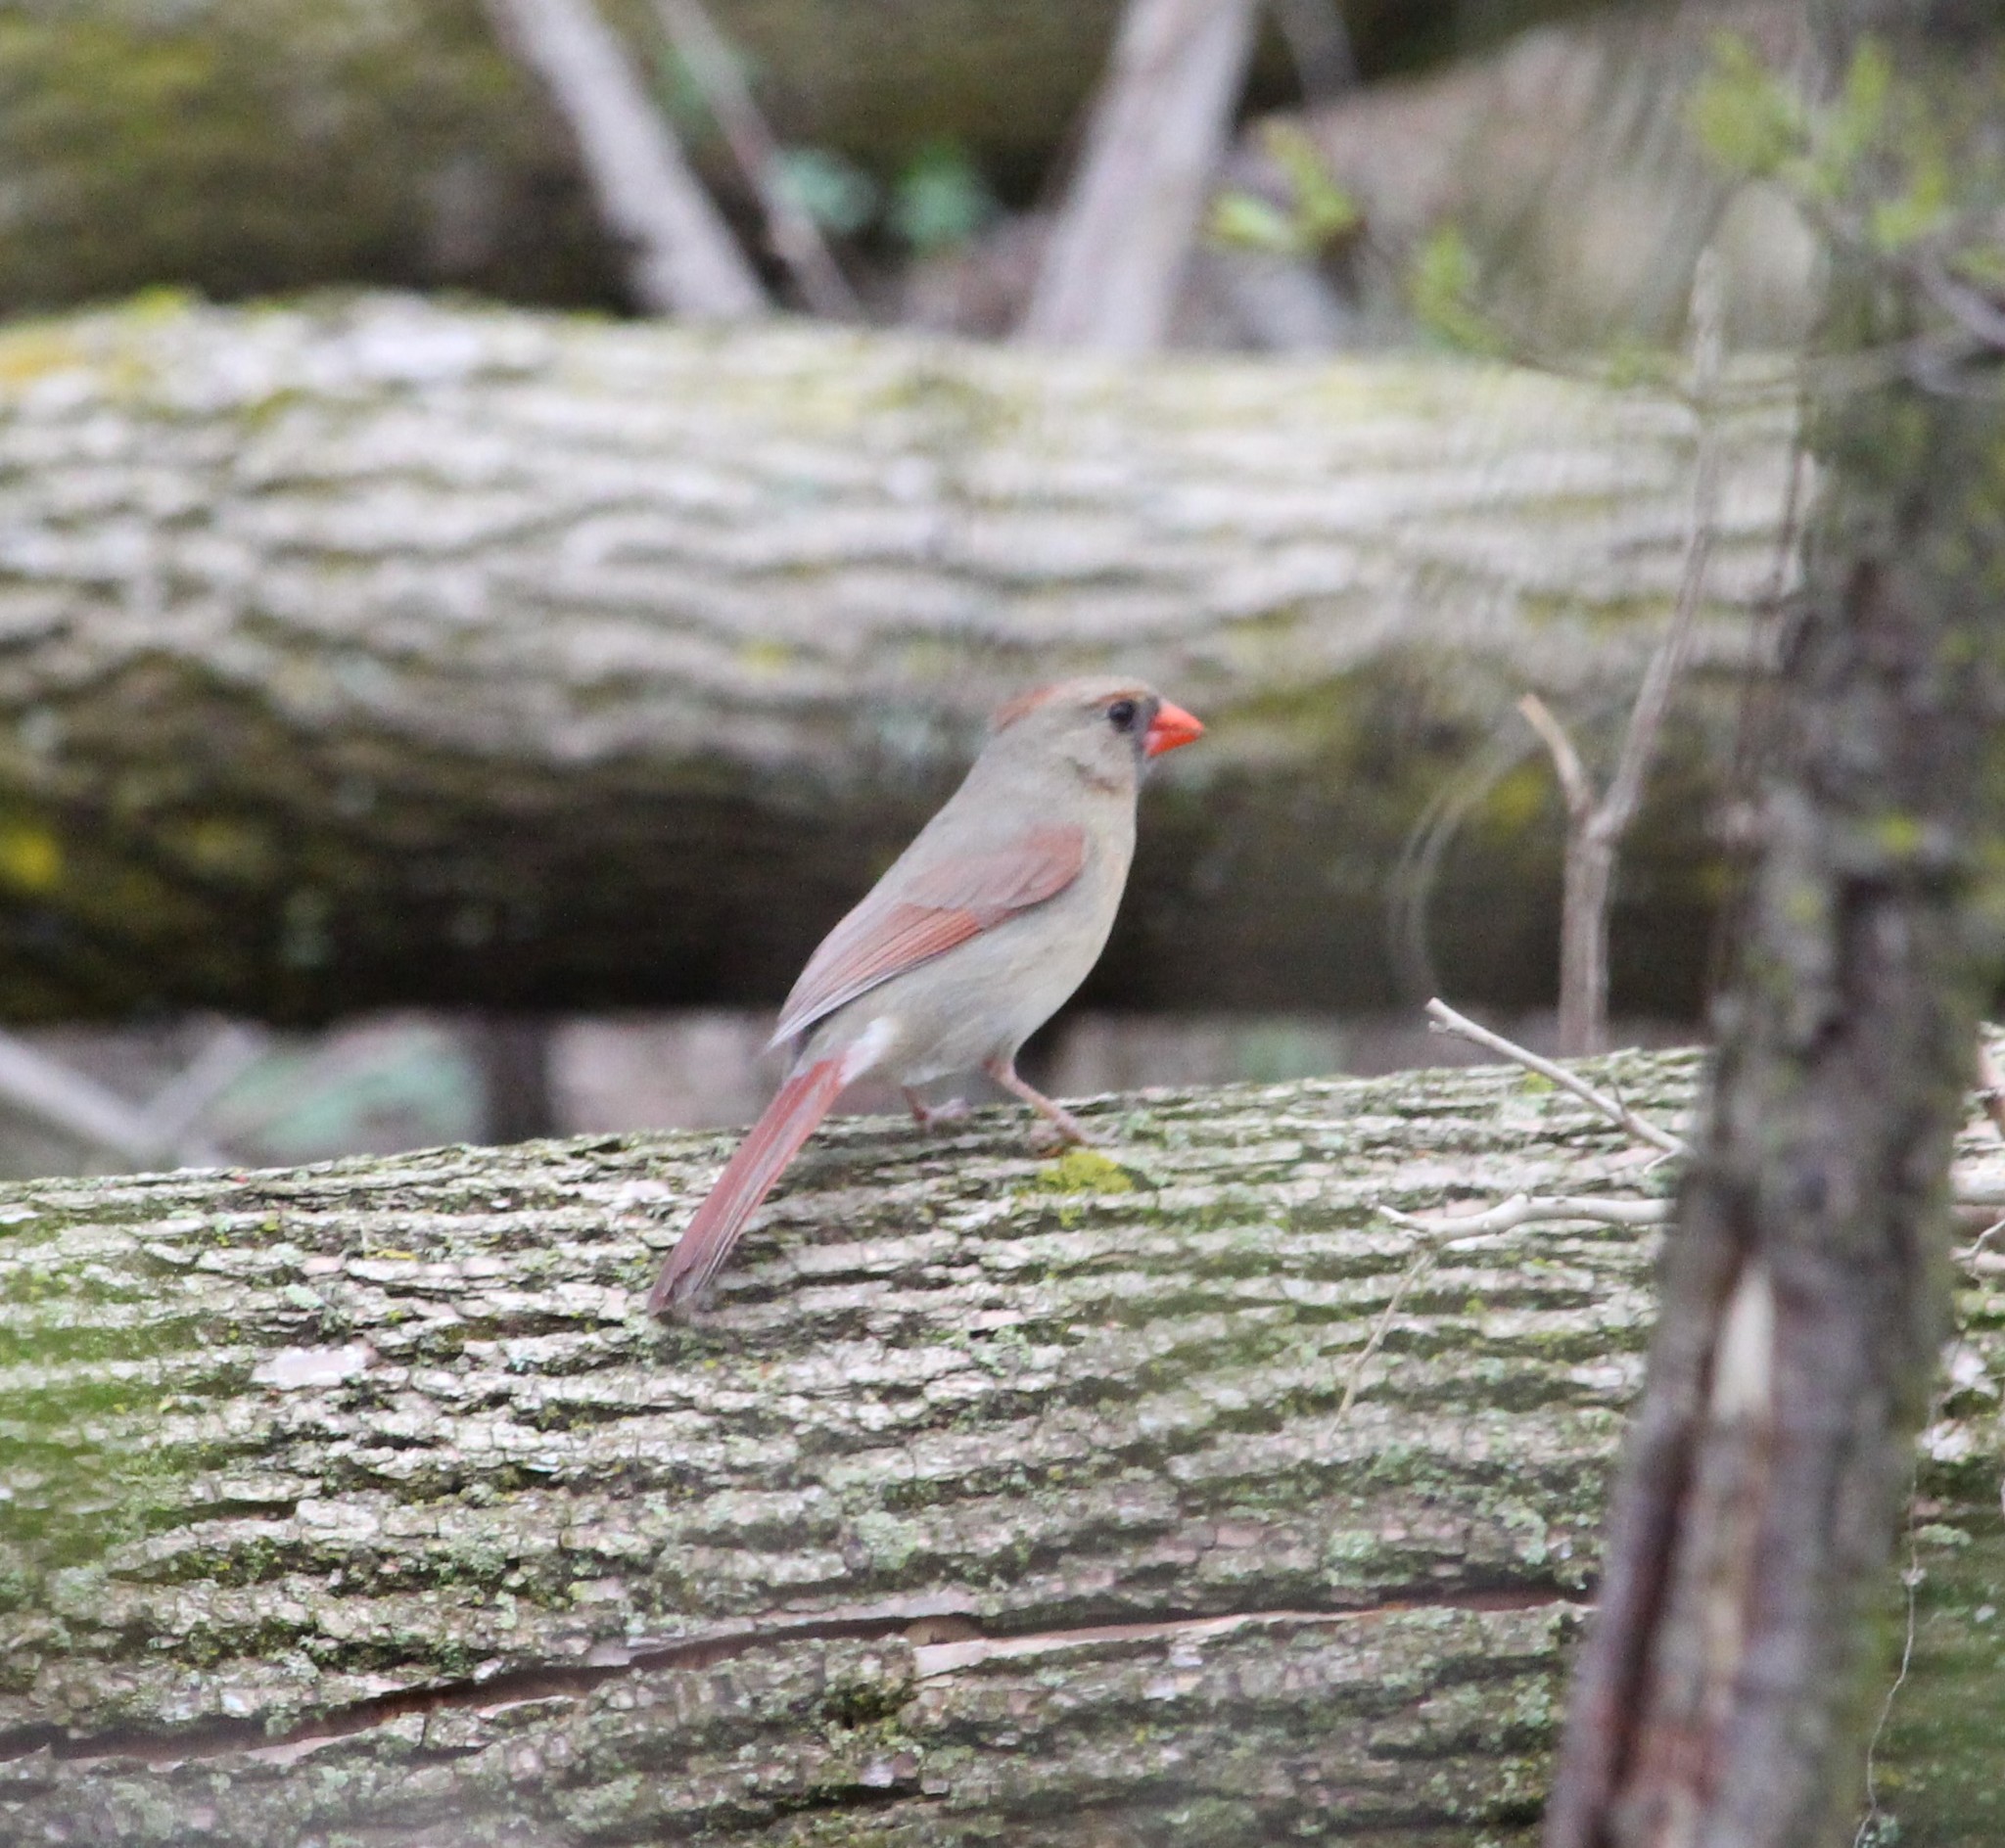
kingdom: Animalia
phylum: Chordata
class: Aves
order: Passeriformes
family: Cardinalidae
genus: Cardinalis
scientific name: Cardinalis cardinalis
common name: Northern cardinal
